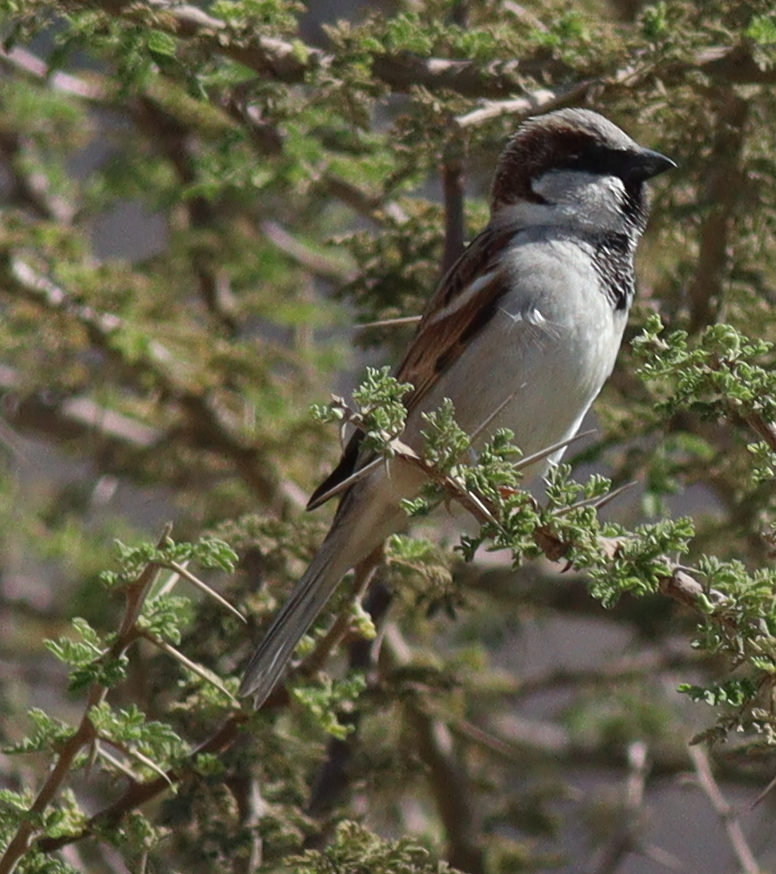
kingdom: Animalia
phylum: Chordata
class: Aves
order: Passeriformes
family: Passeridae
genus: Passer
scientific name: Passer domesticus
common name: House sparrow
